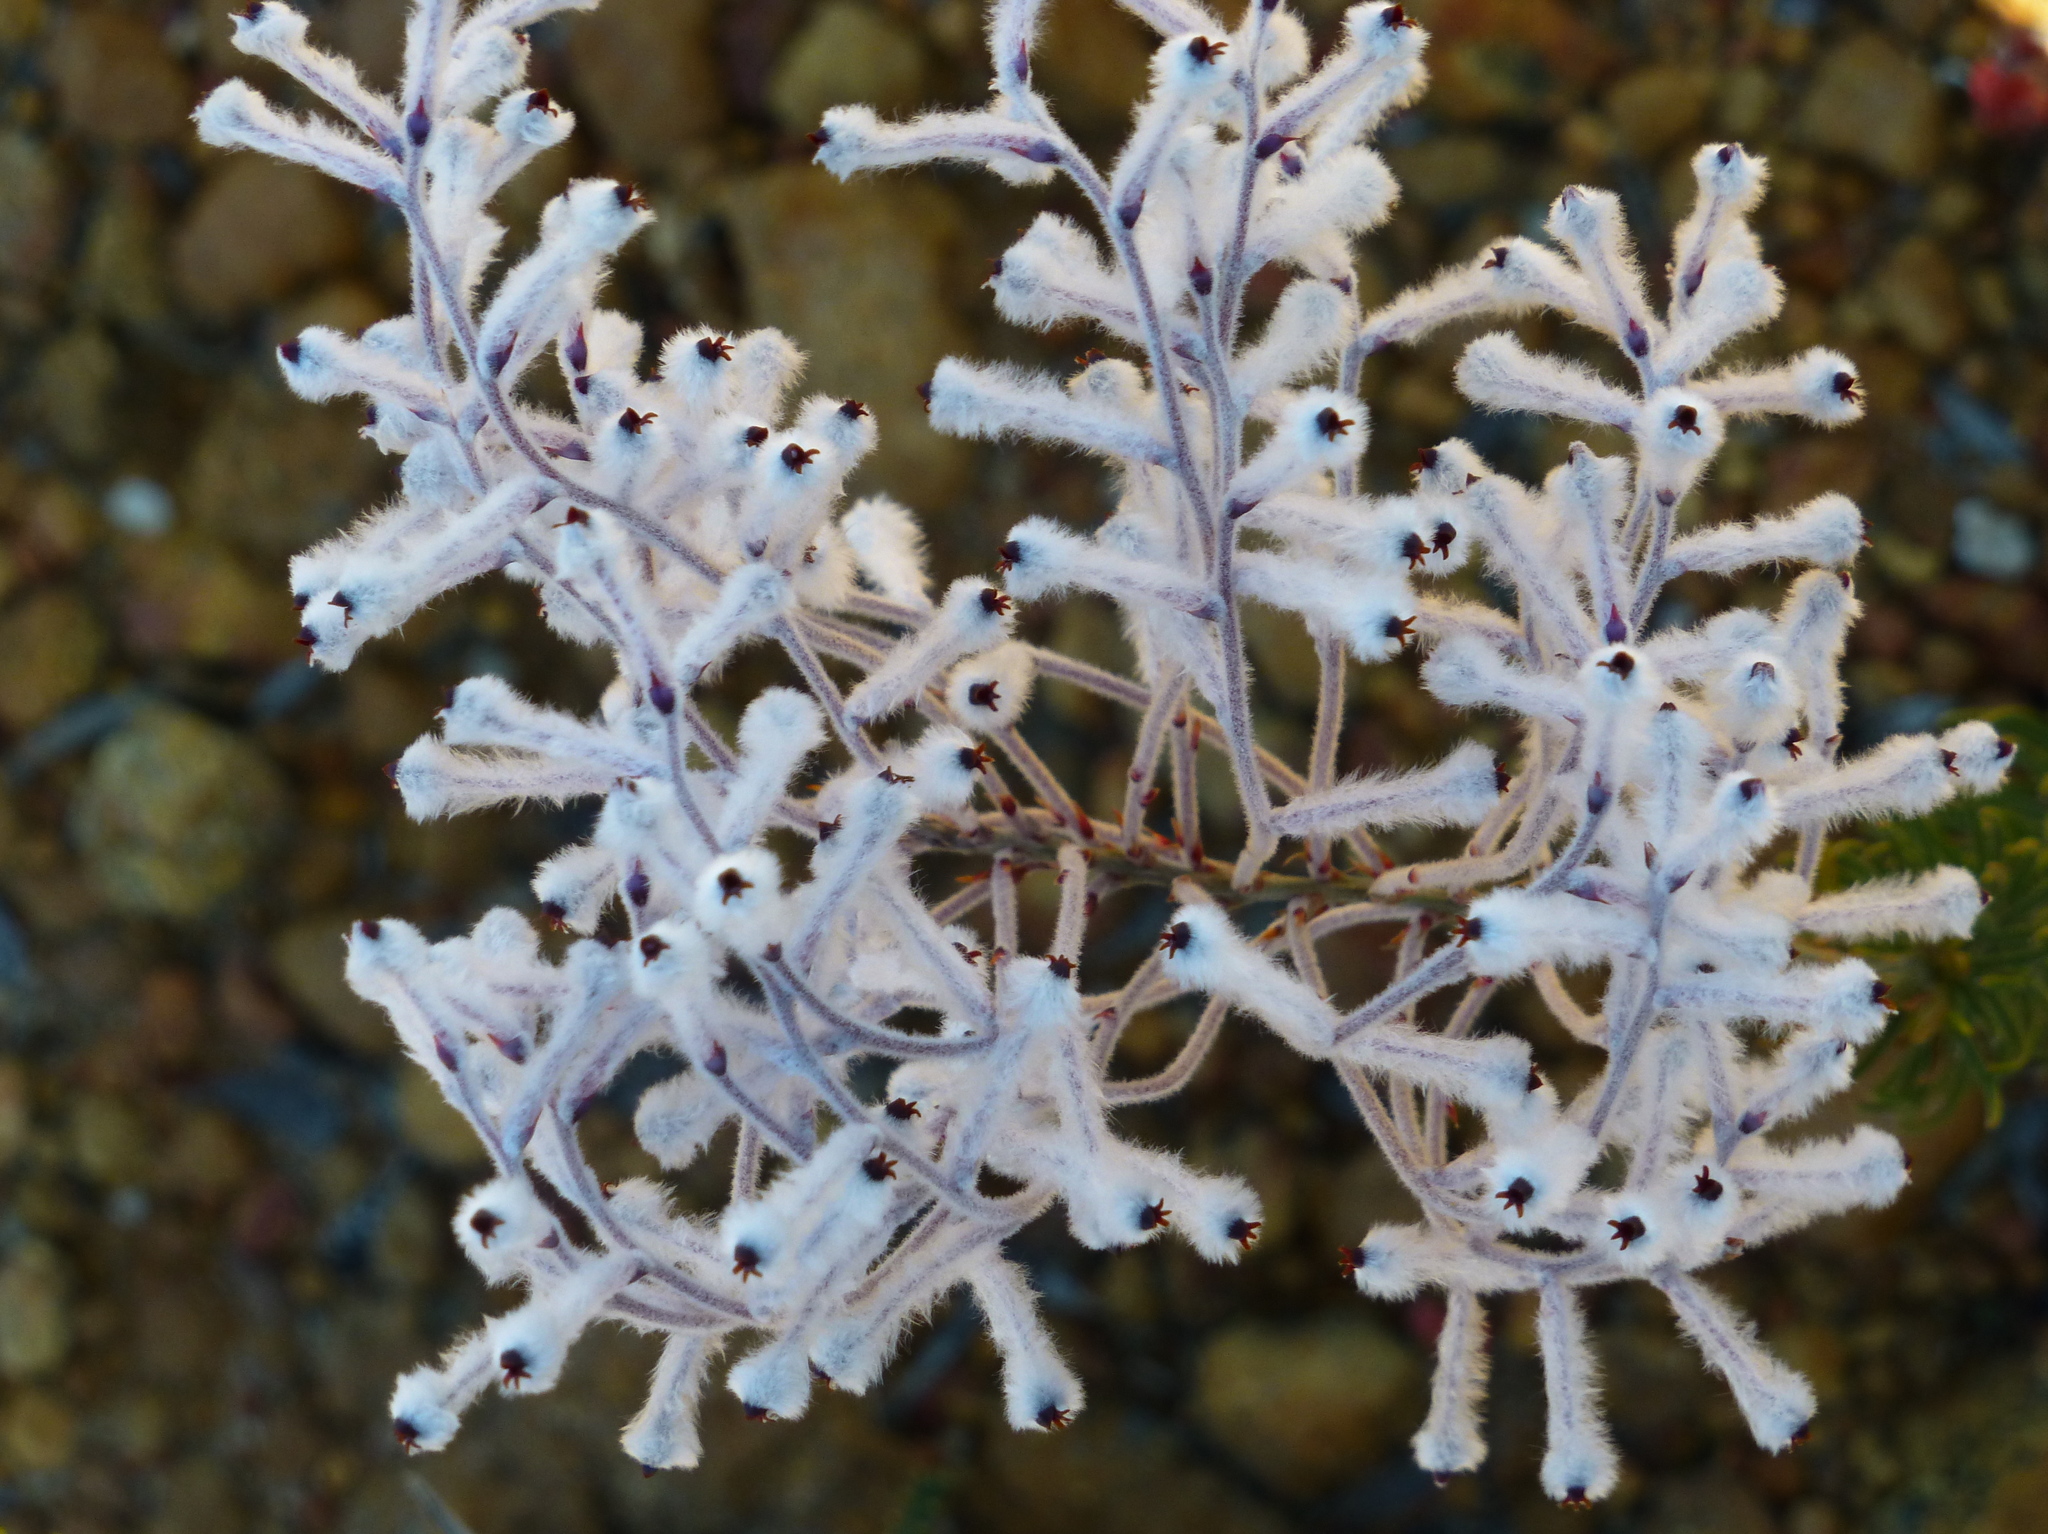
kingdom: Plantae
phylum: Tracheophyta
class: Magnoliopsida
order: Proteales
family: Proteaceae
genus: Conospermum
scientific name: Conospermum boreale
